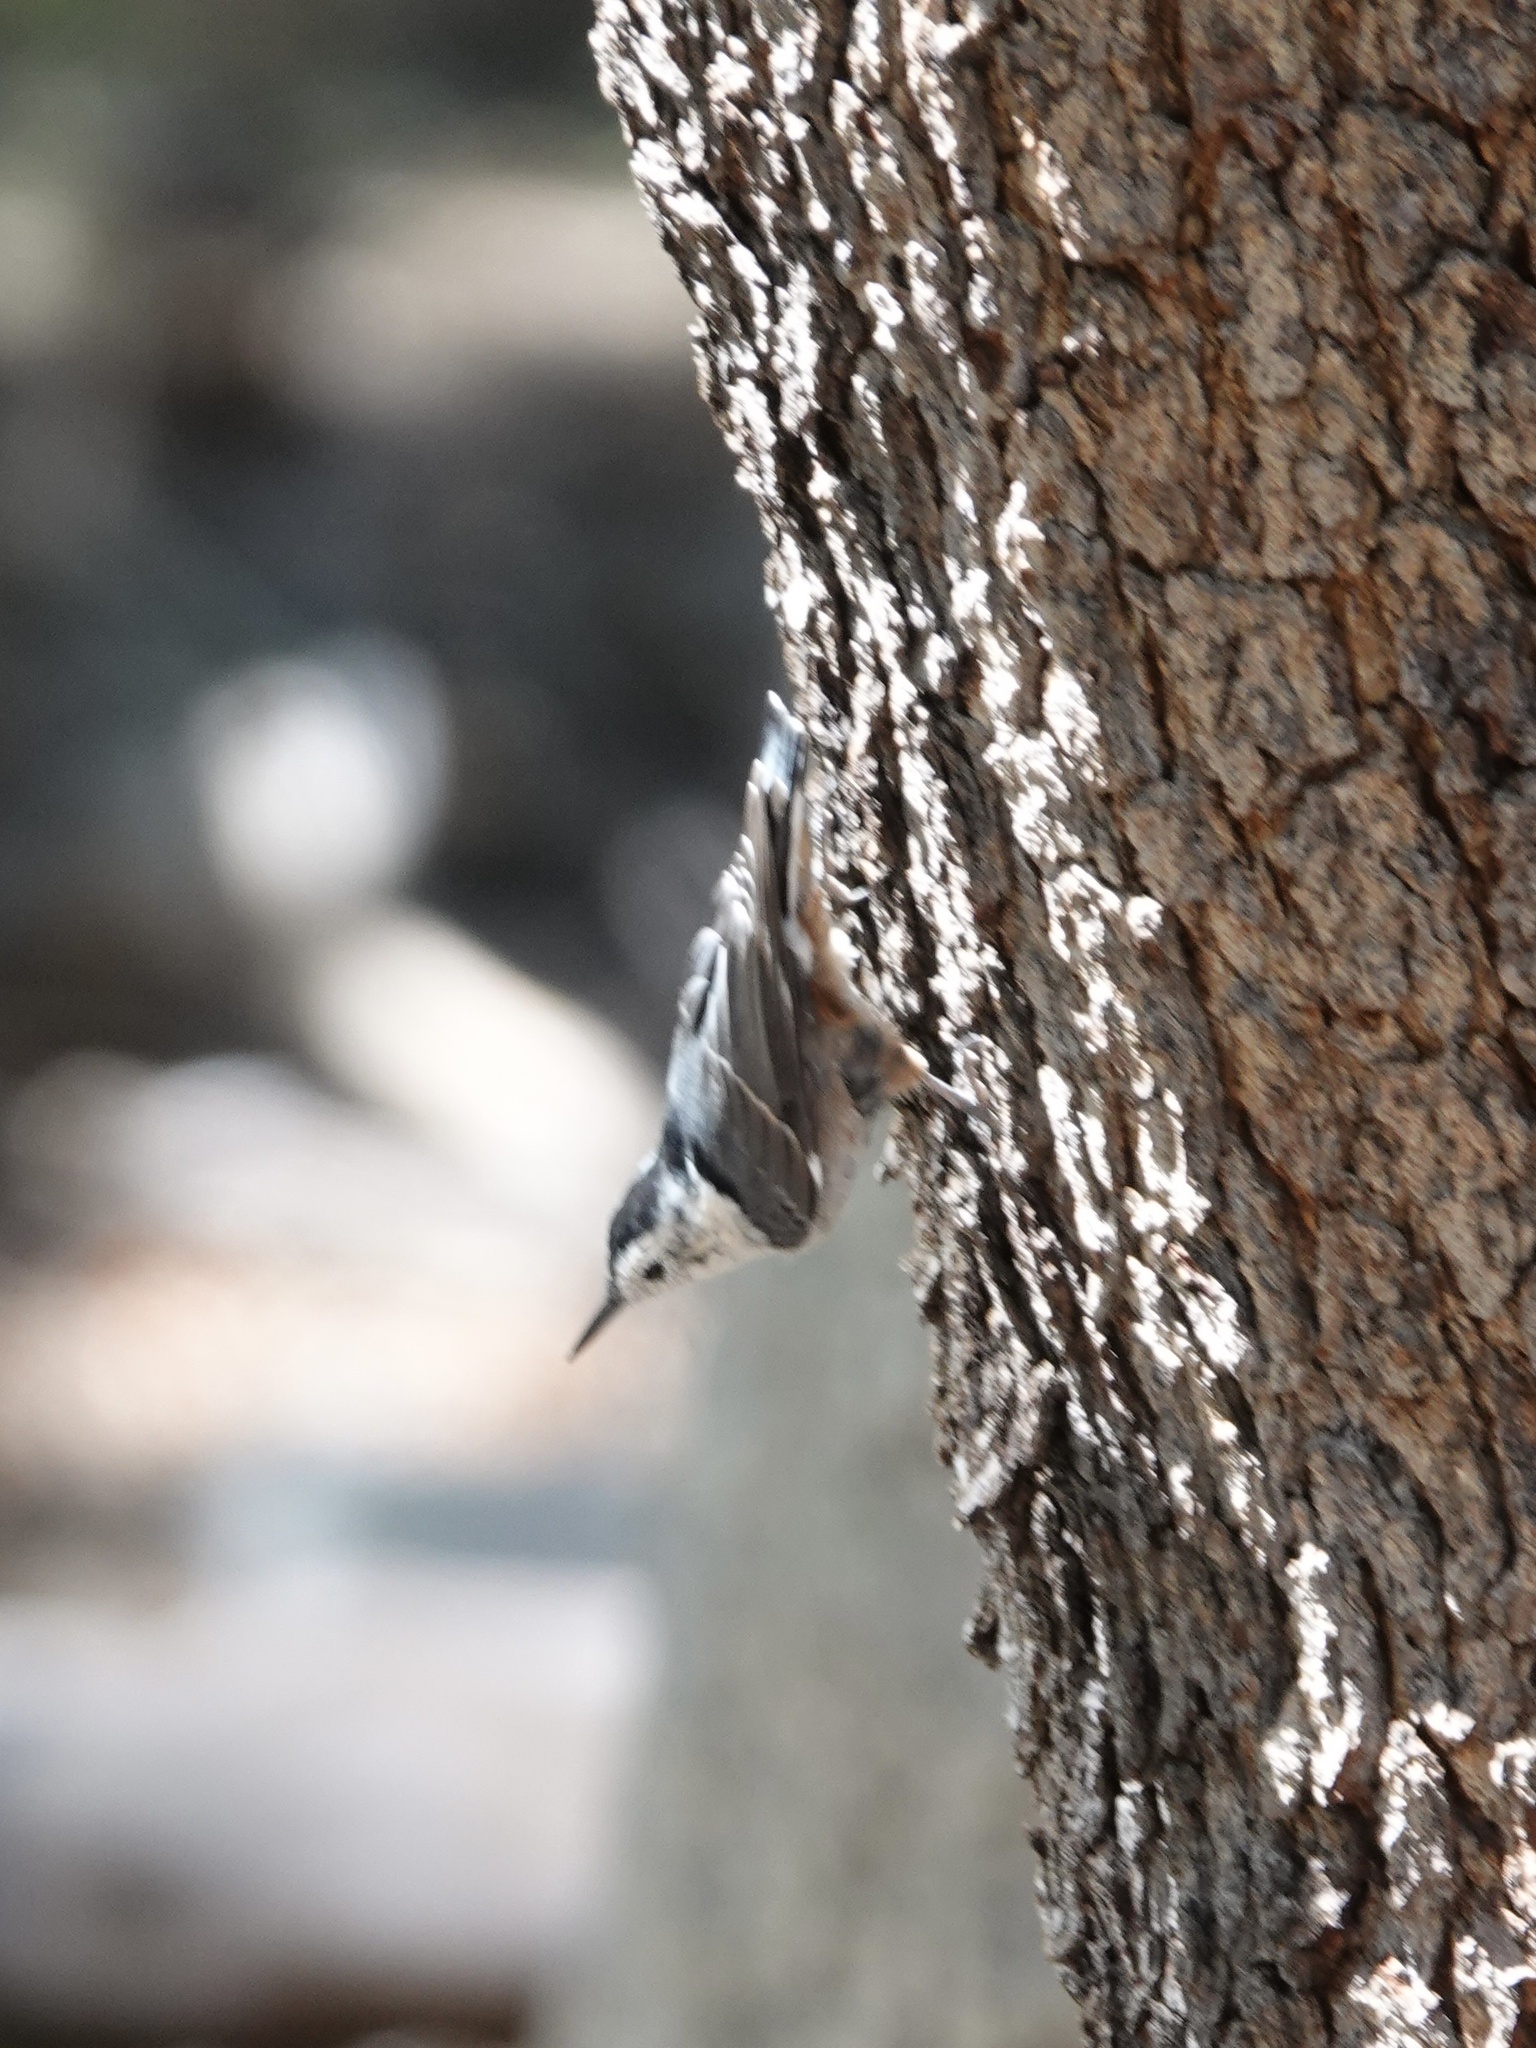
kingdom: Animalia
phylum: Chordata
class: Aves
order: Passeriformes
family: Sittidae
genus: Sitta
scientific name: Sitta carolinensis
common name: White-breasted nuthatch
